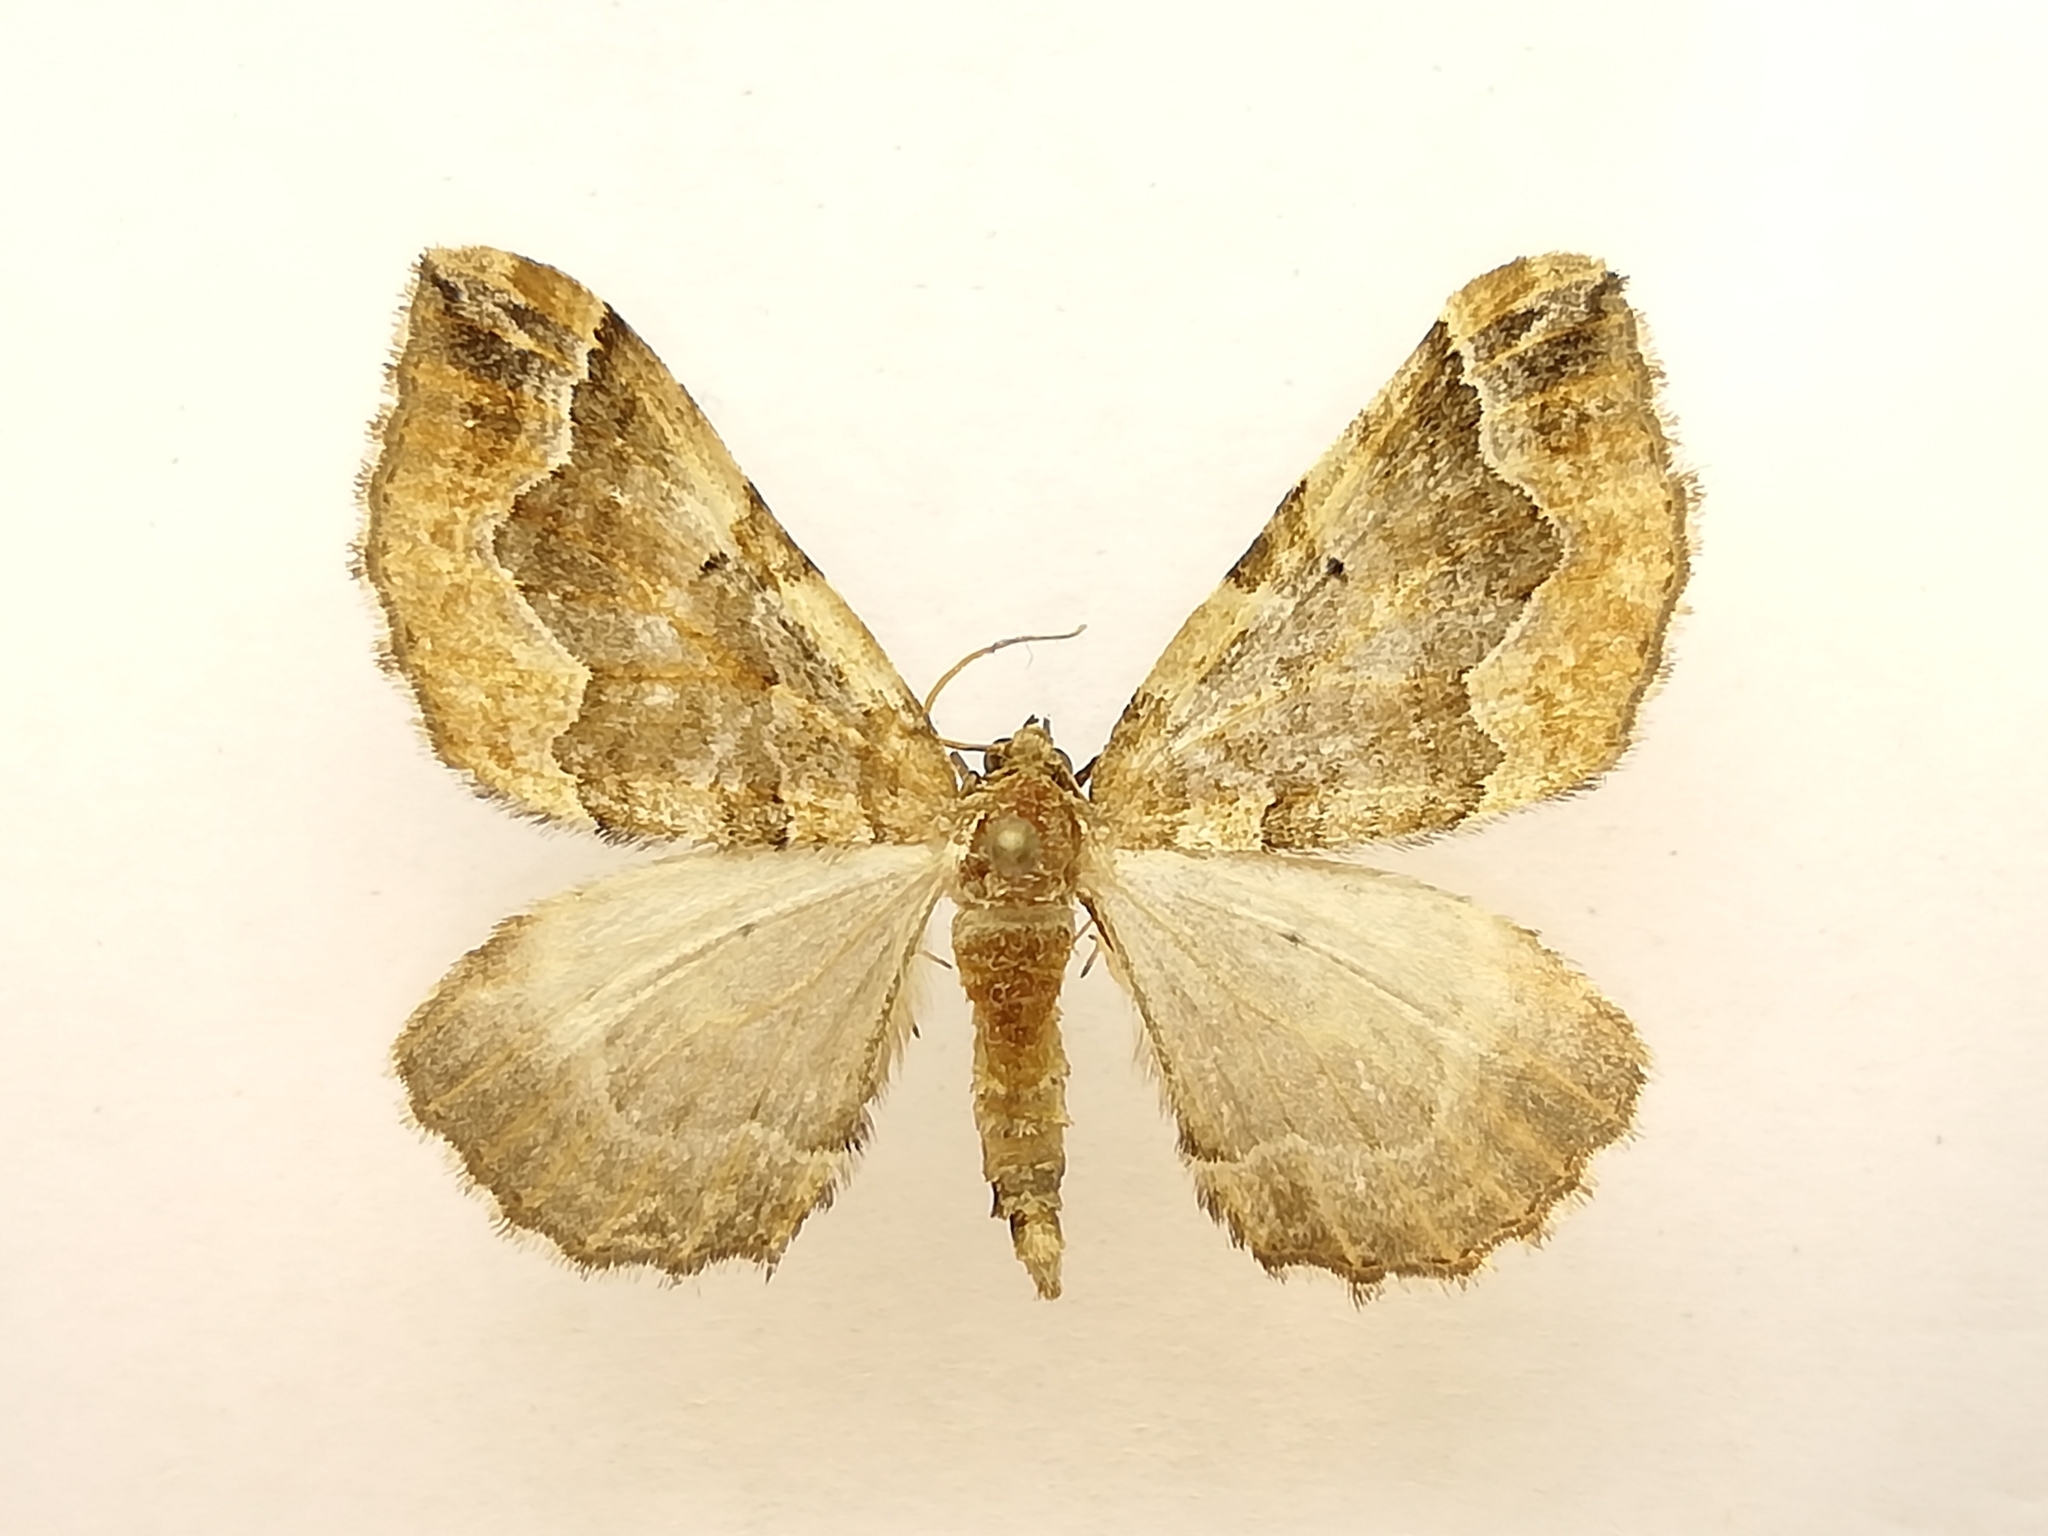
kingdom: Animalia
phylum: Arthropoda
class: Insecta
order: Lepidoptera
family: Geometridae
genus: Pelurga
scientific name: Pelurga comitata
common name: Dark spinach
